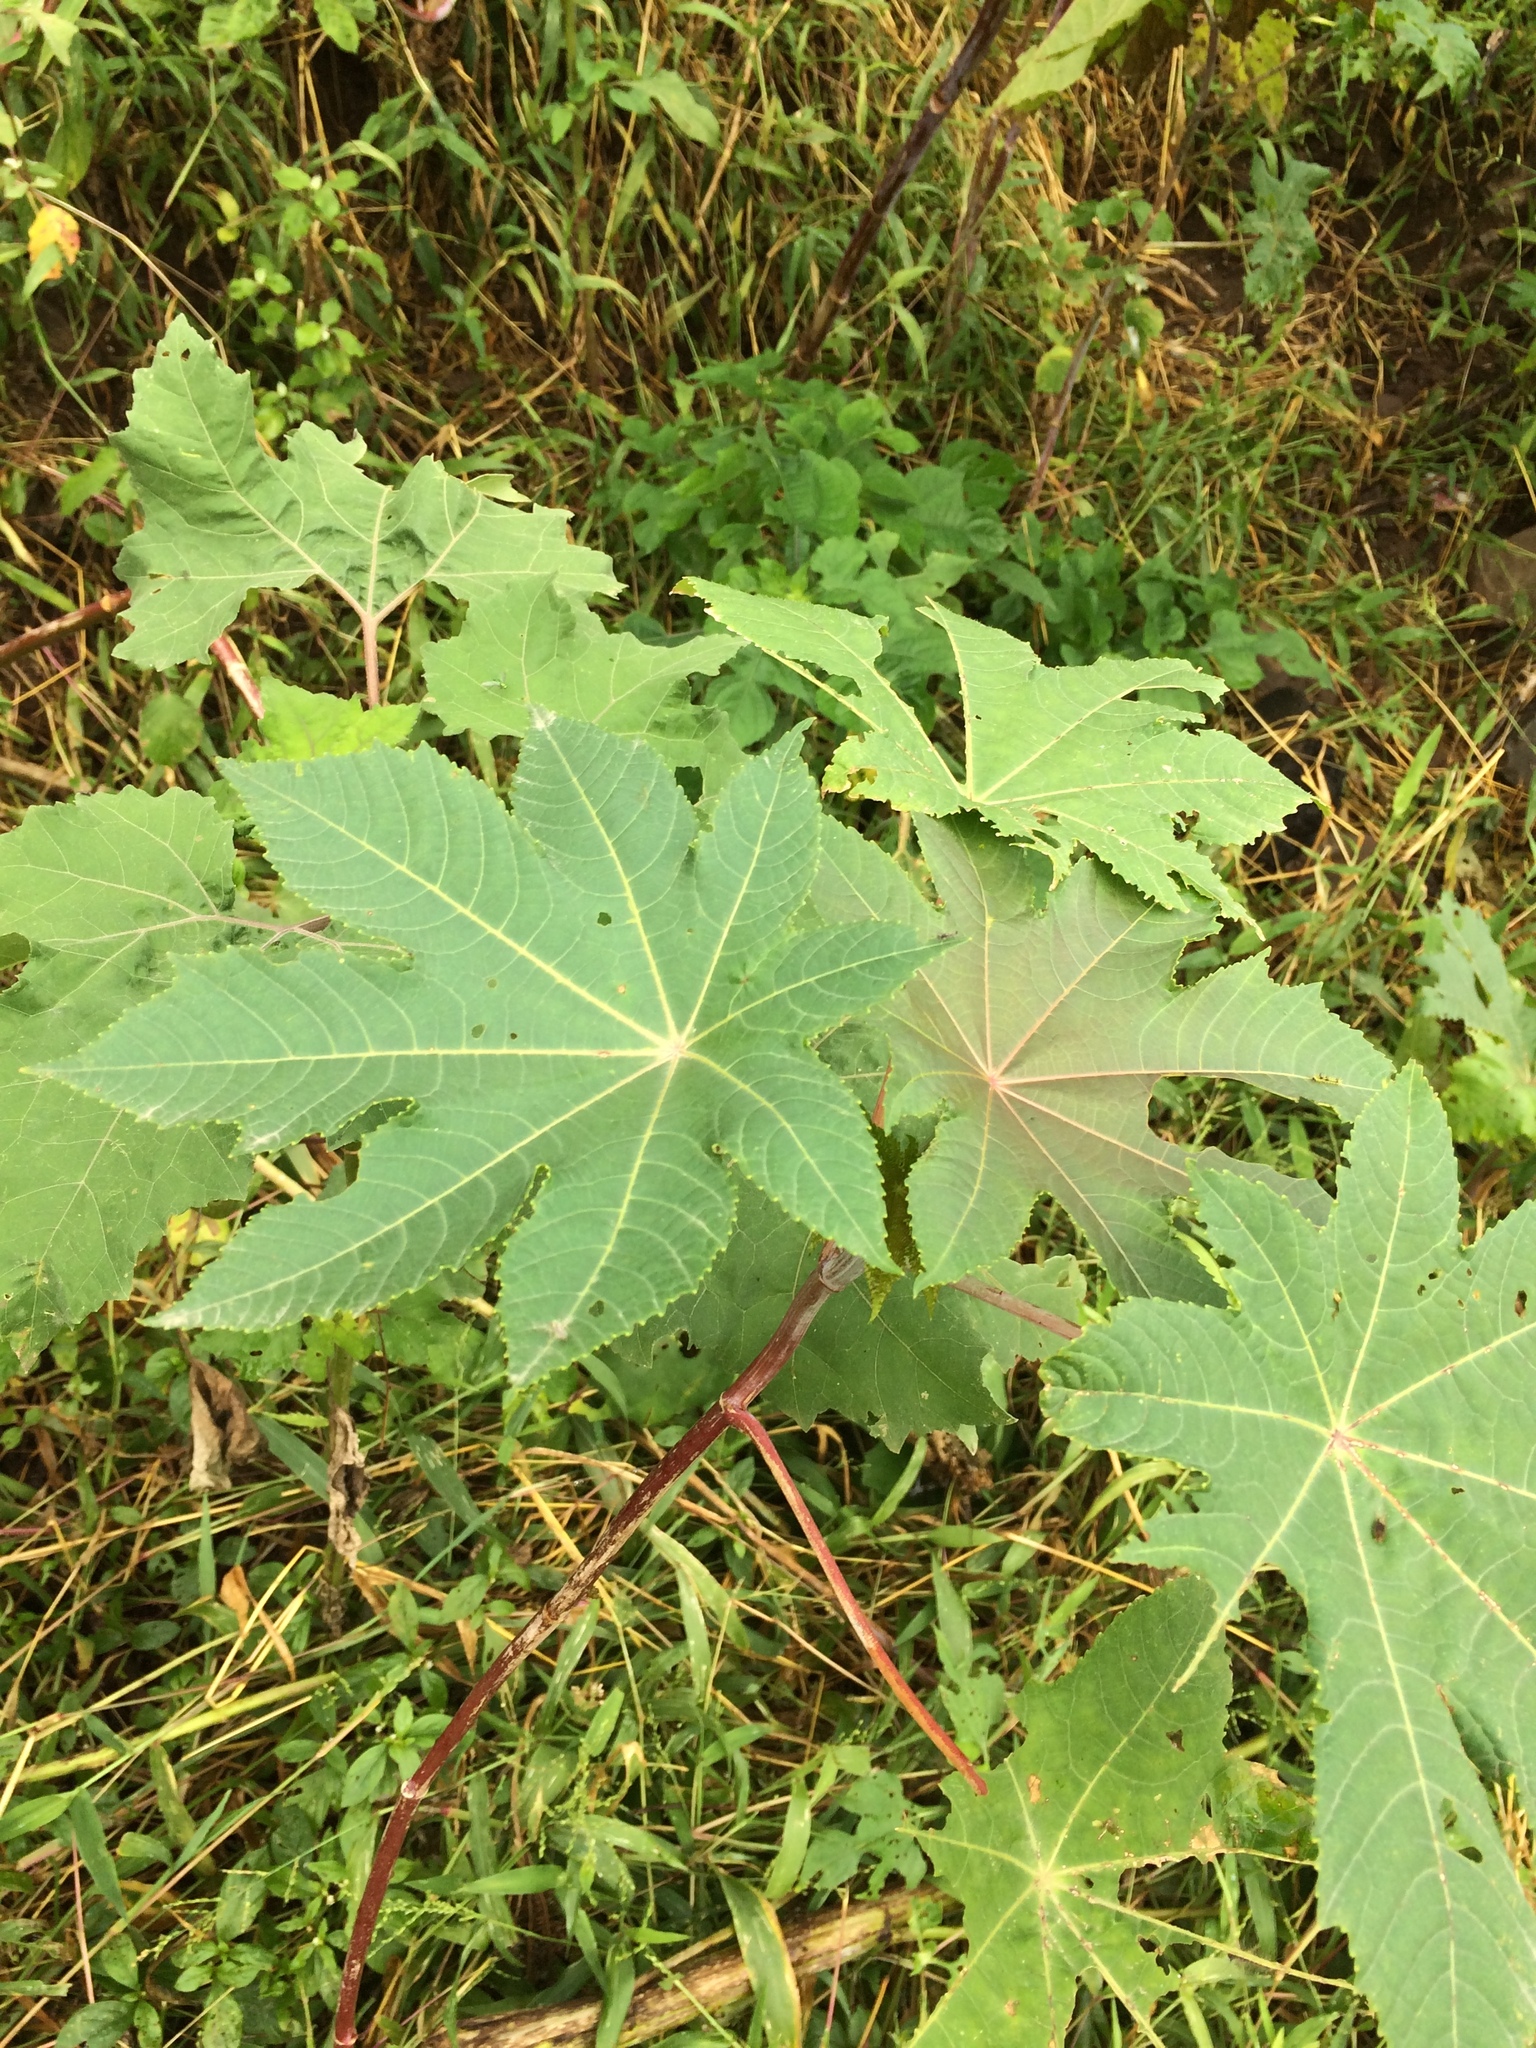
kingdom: Plantae
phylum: Tracheophyta
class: Magnoliopsida
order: Malpighiales
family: Euphorbiaceae
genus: Ricinus
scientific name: Ricinus communis
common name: Castor-oil-plant
